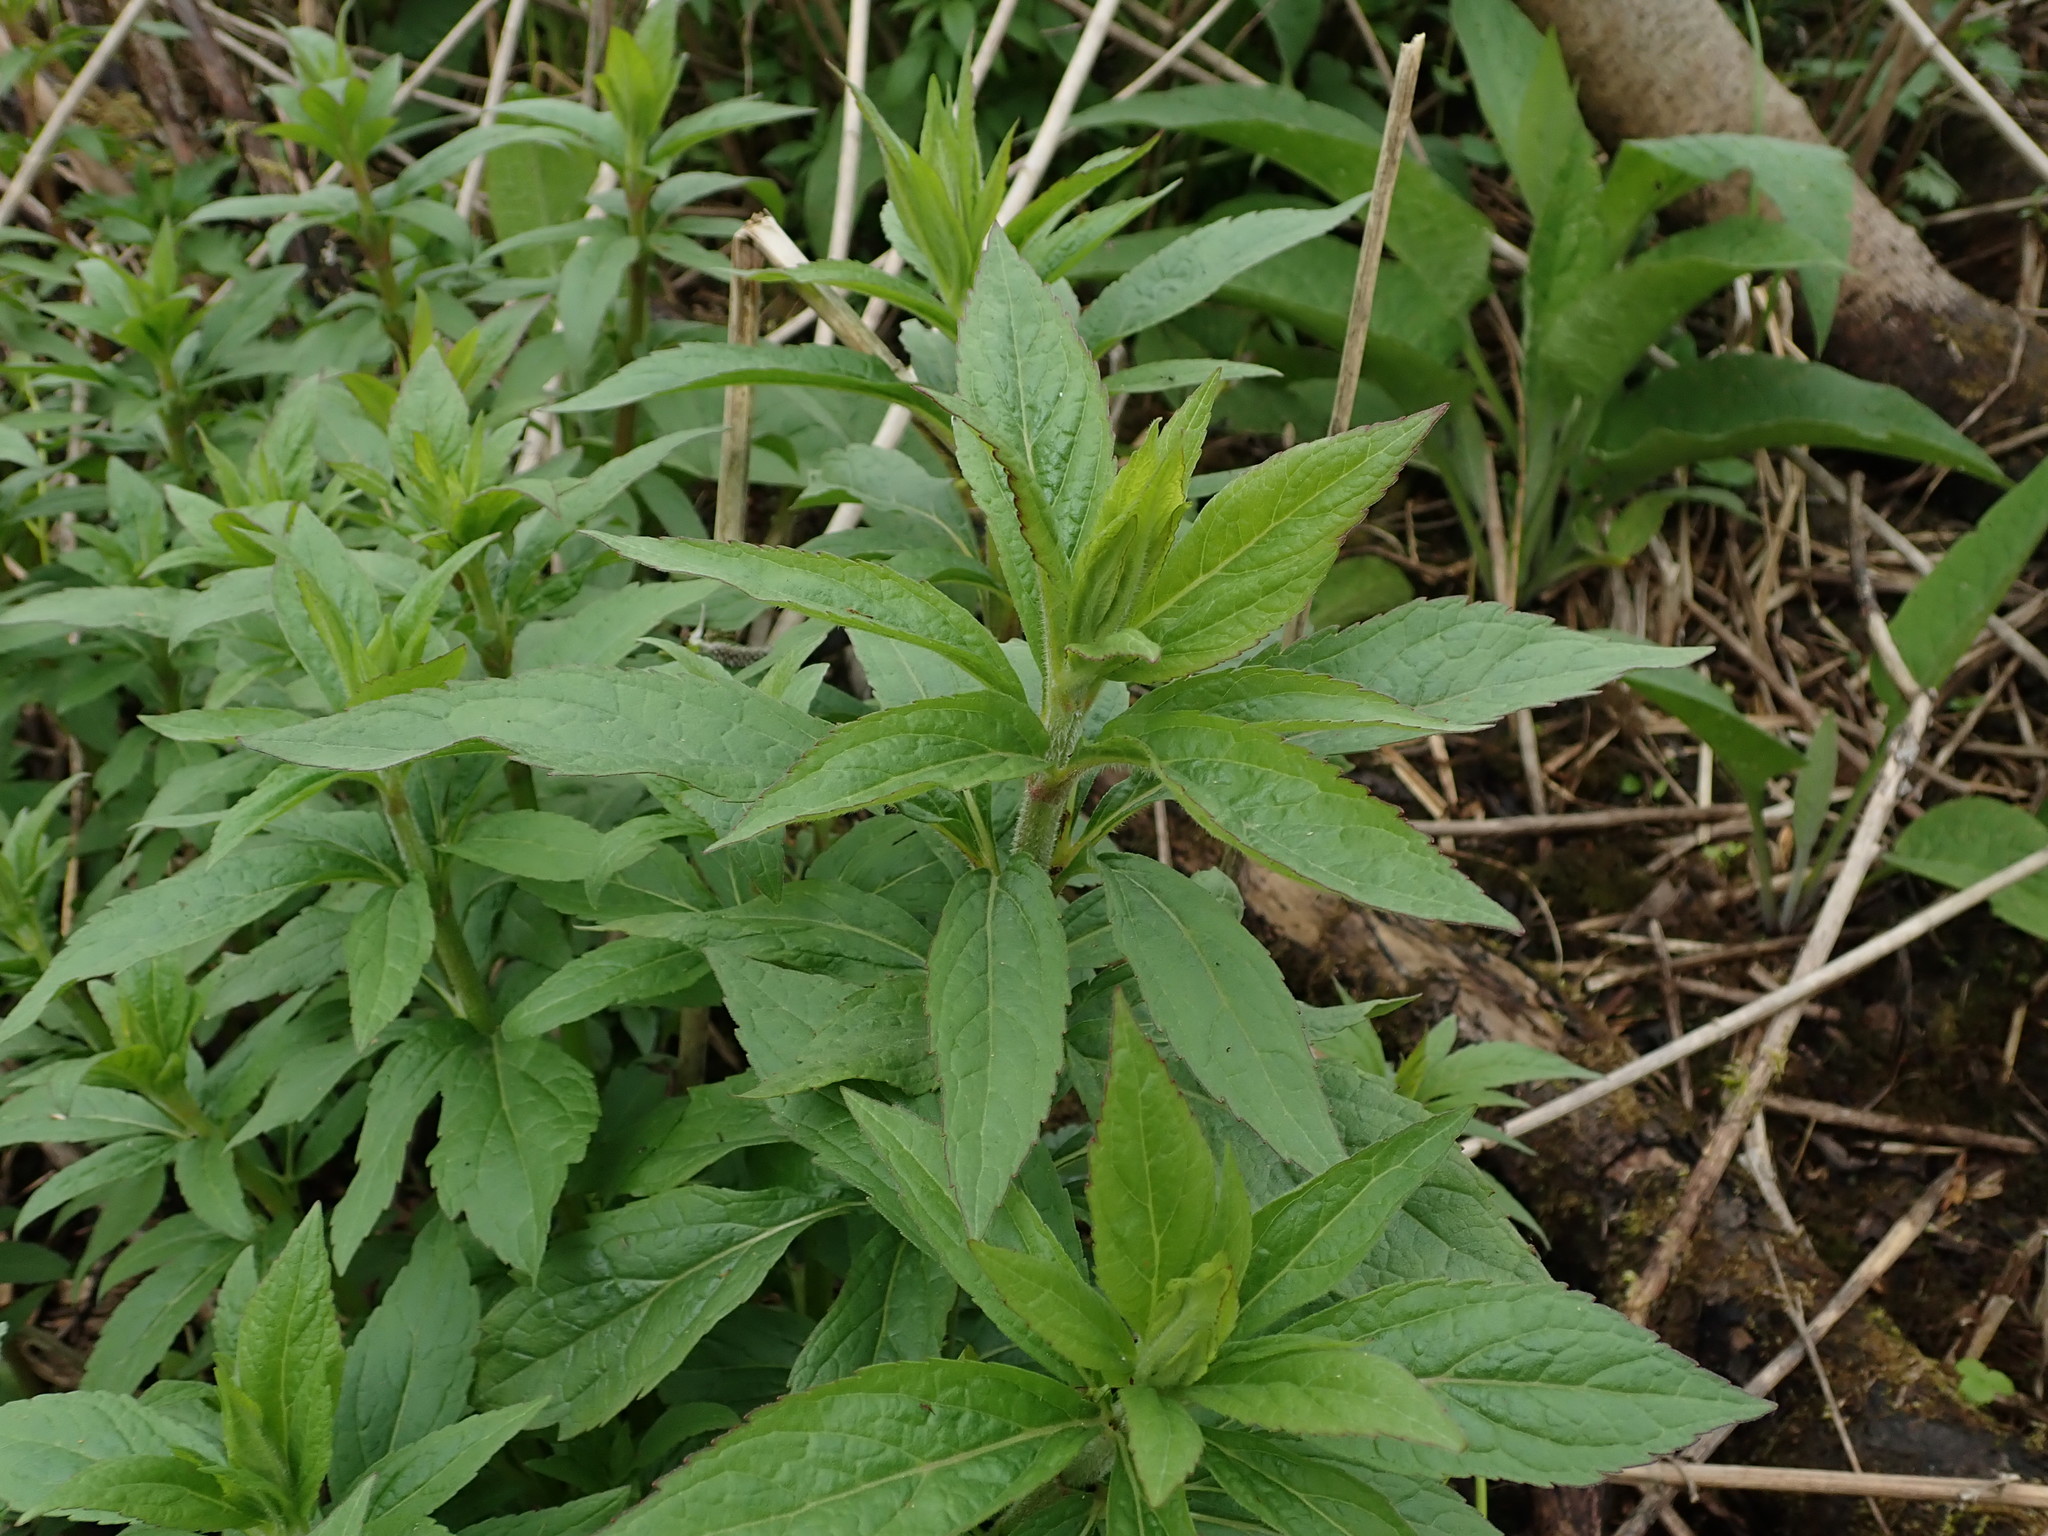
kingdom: Plantae
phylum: Tracheophyta
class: Magnoliopsida
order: Asterales
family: Asteraceae
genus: Eupatorium
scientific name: Eupatorium cannabinum
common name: Hemp-agrimony
